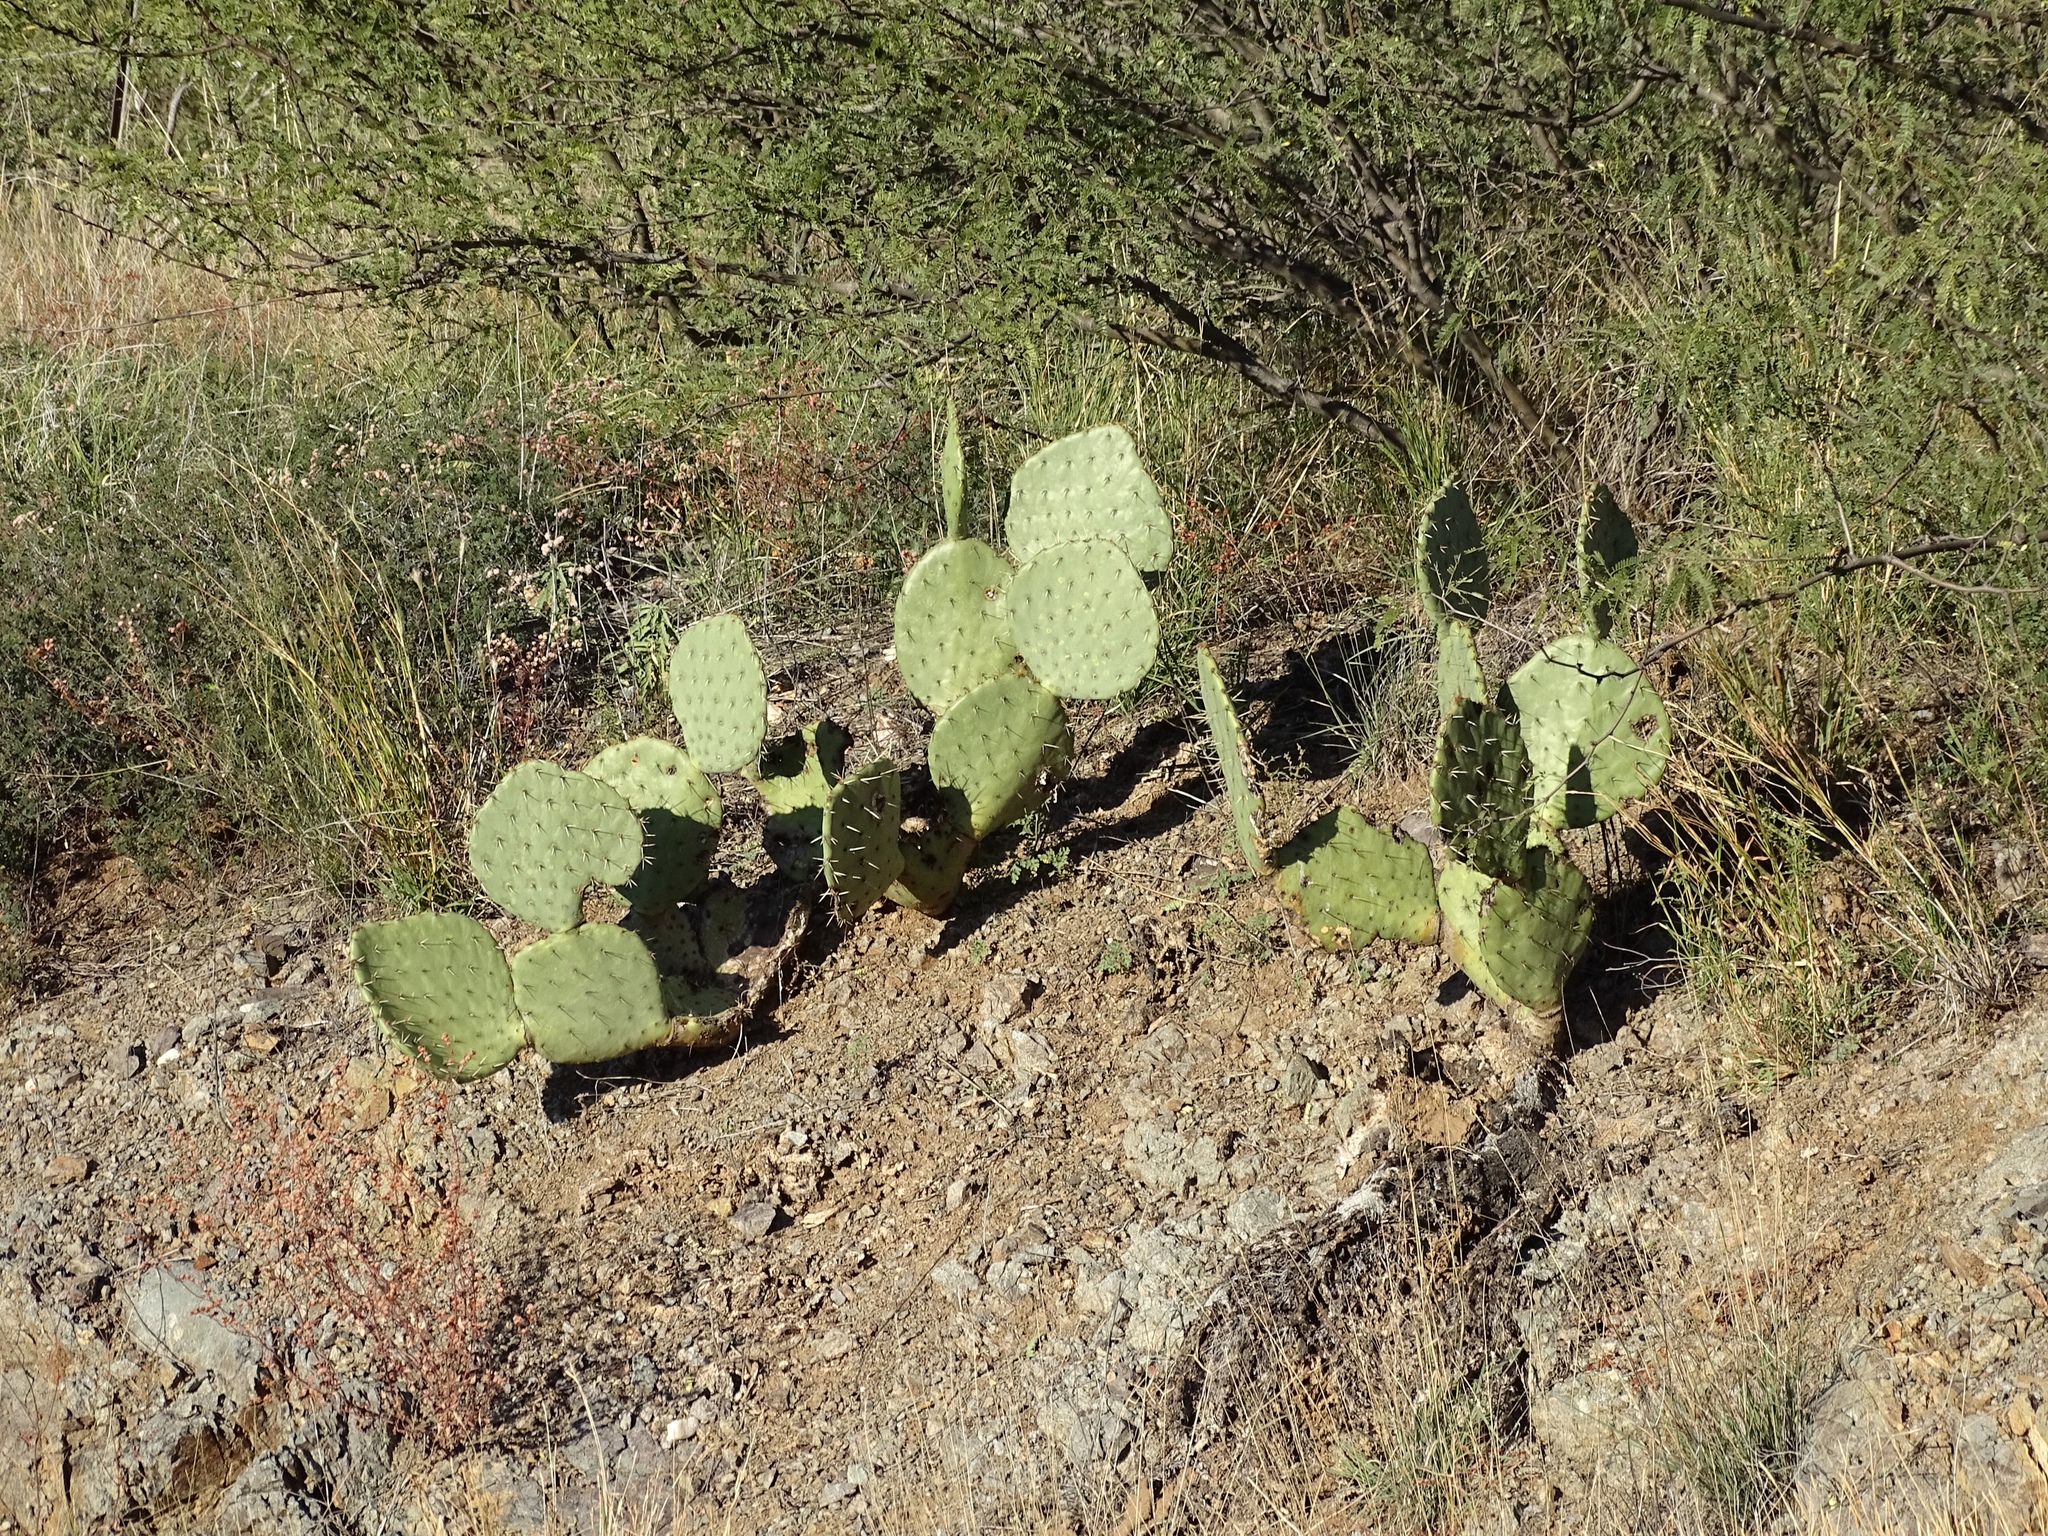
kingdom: Plantae
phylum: Tracheophyta
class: Magnoliopsida
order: Caryophyllales
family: Cactaceae
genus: Opuntia
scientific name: Opuntia engelmannii
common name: Cactus-apple
